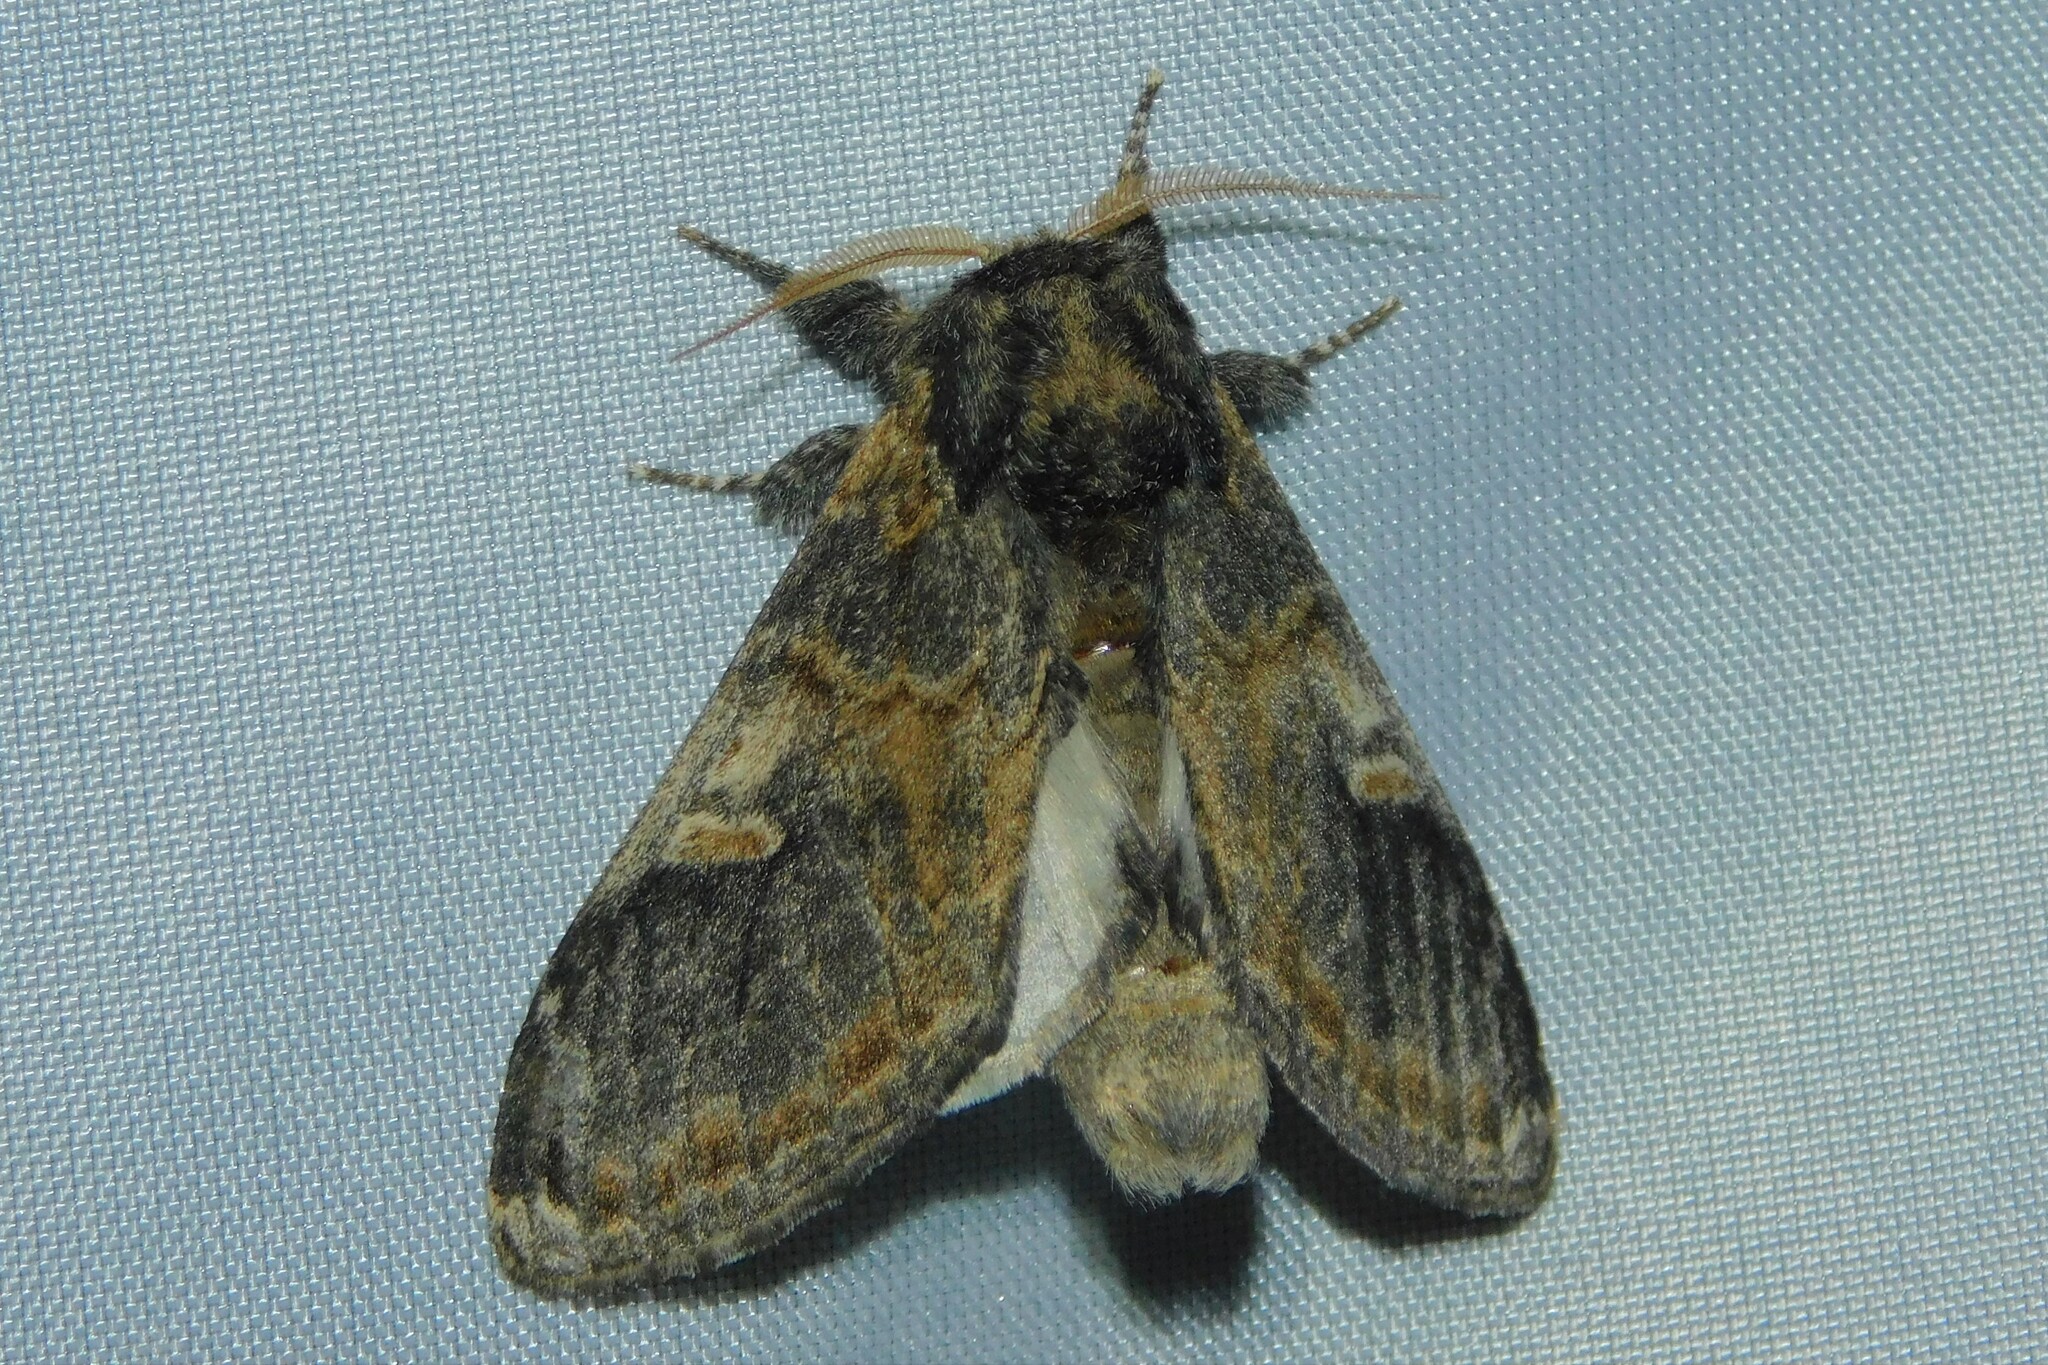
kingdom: Animalia
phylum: Arthropoda
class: Insecta
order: Lepidoptera
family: Notodontidae
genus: Notodonta
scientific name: Notodonta tritophus
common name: Three-humped prominent
